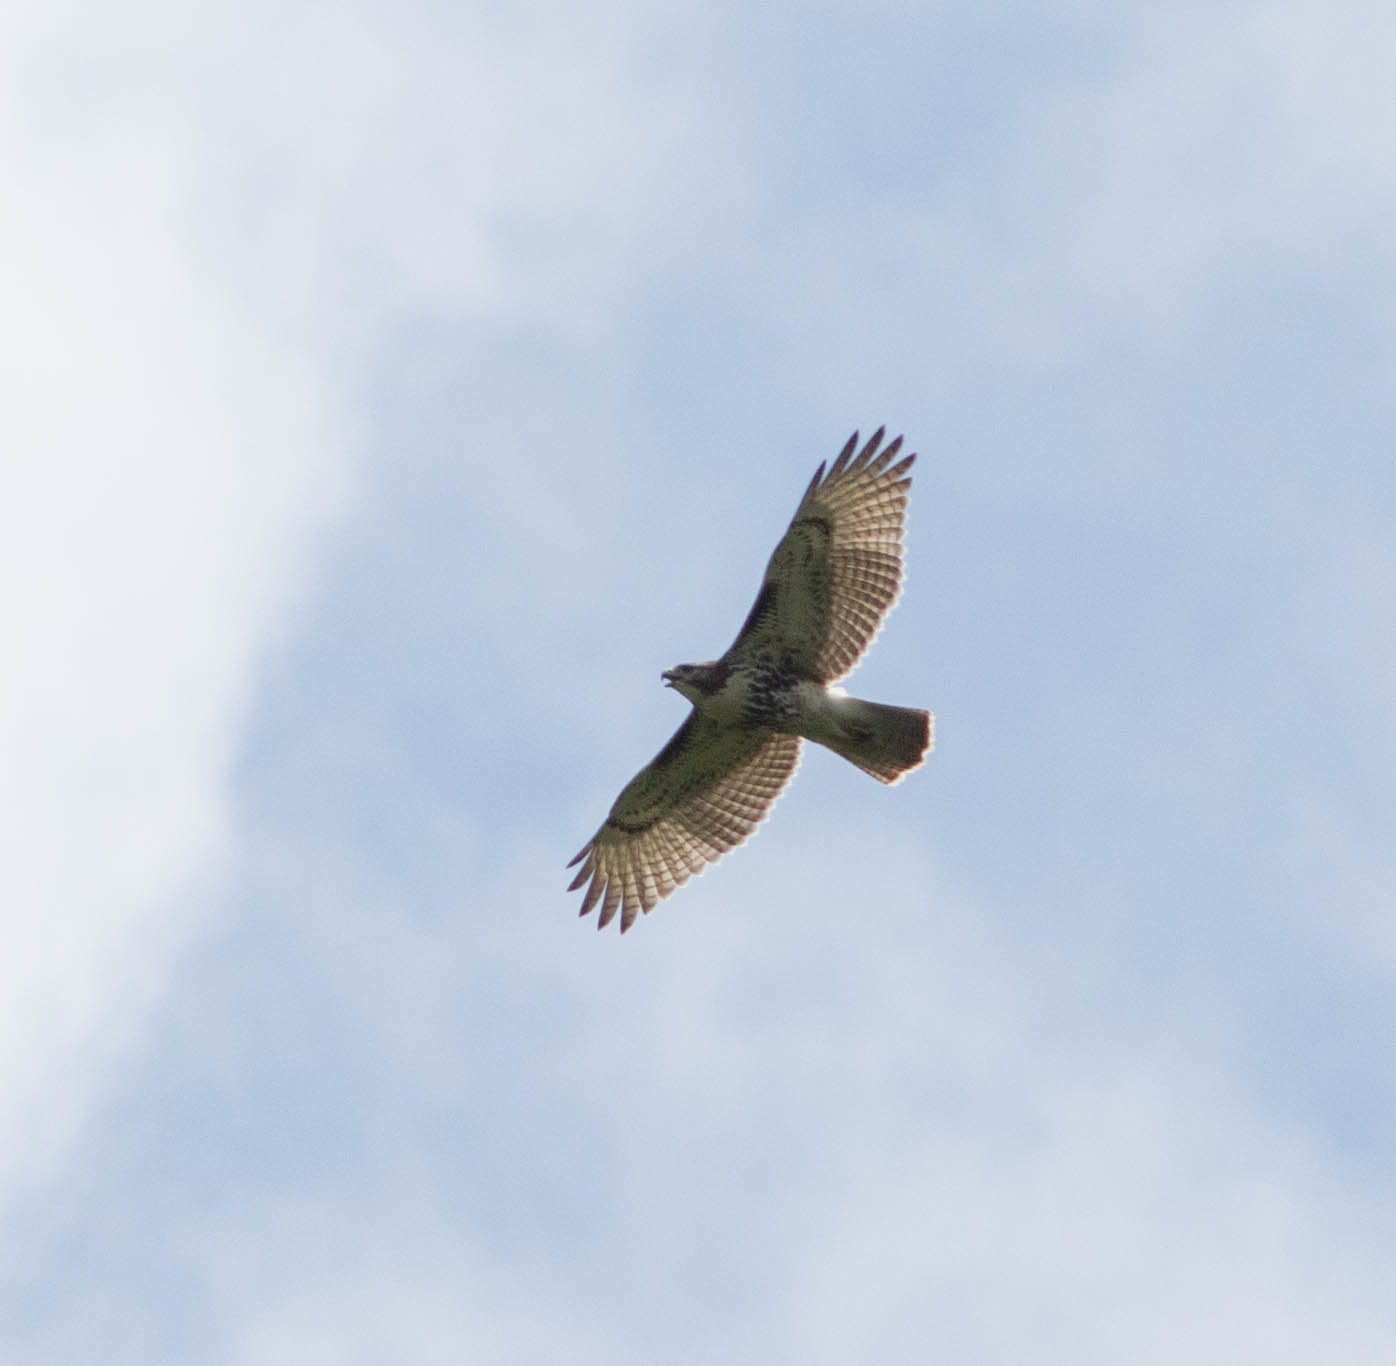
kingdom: Animalia
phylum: Chordata
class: Aves
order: Accipitriformes
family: Accipitridae
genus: Buteo
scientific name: Buteo jamaicensis
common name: Red-tailed hawk
